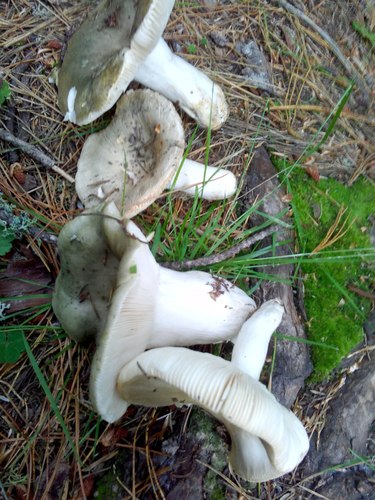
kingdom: Fungi
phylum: Basidiomycota
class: Agaricomycetes
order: Russulales
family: Russulaceae
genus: Russula
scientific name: Russula
